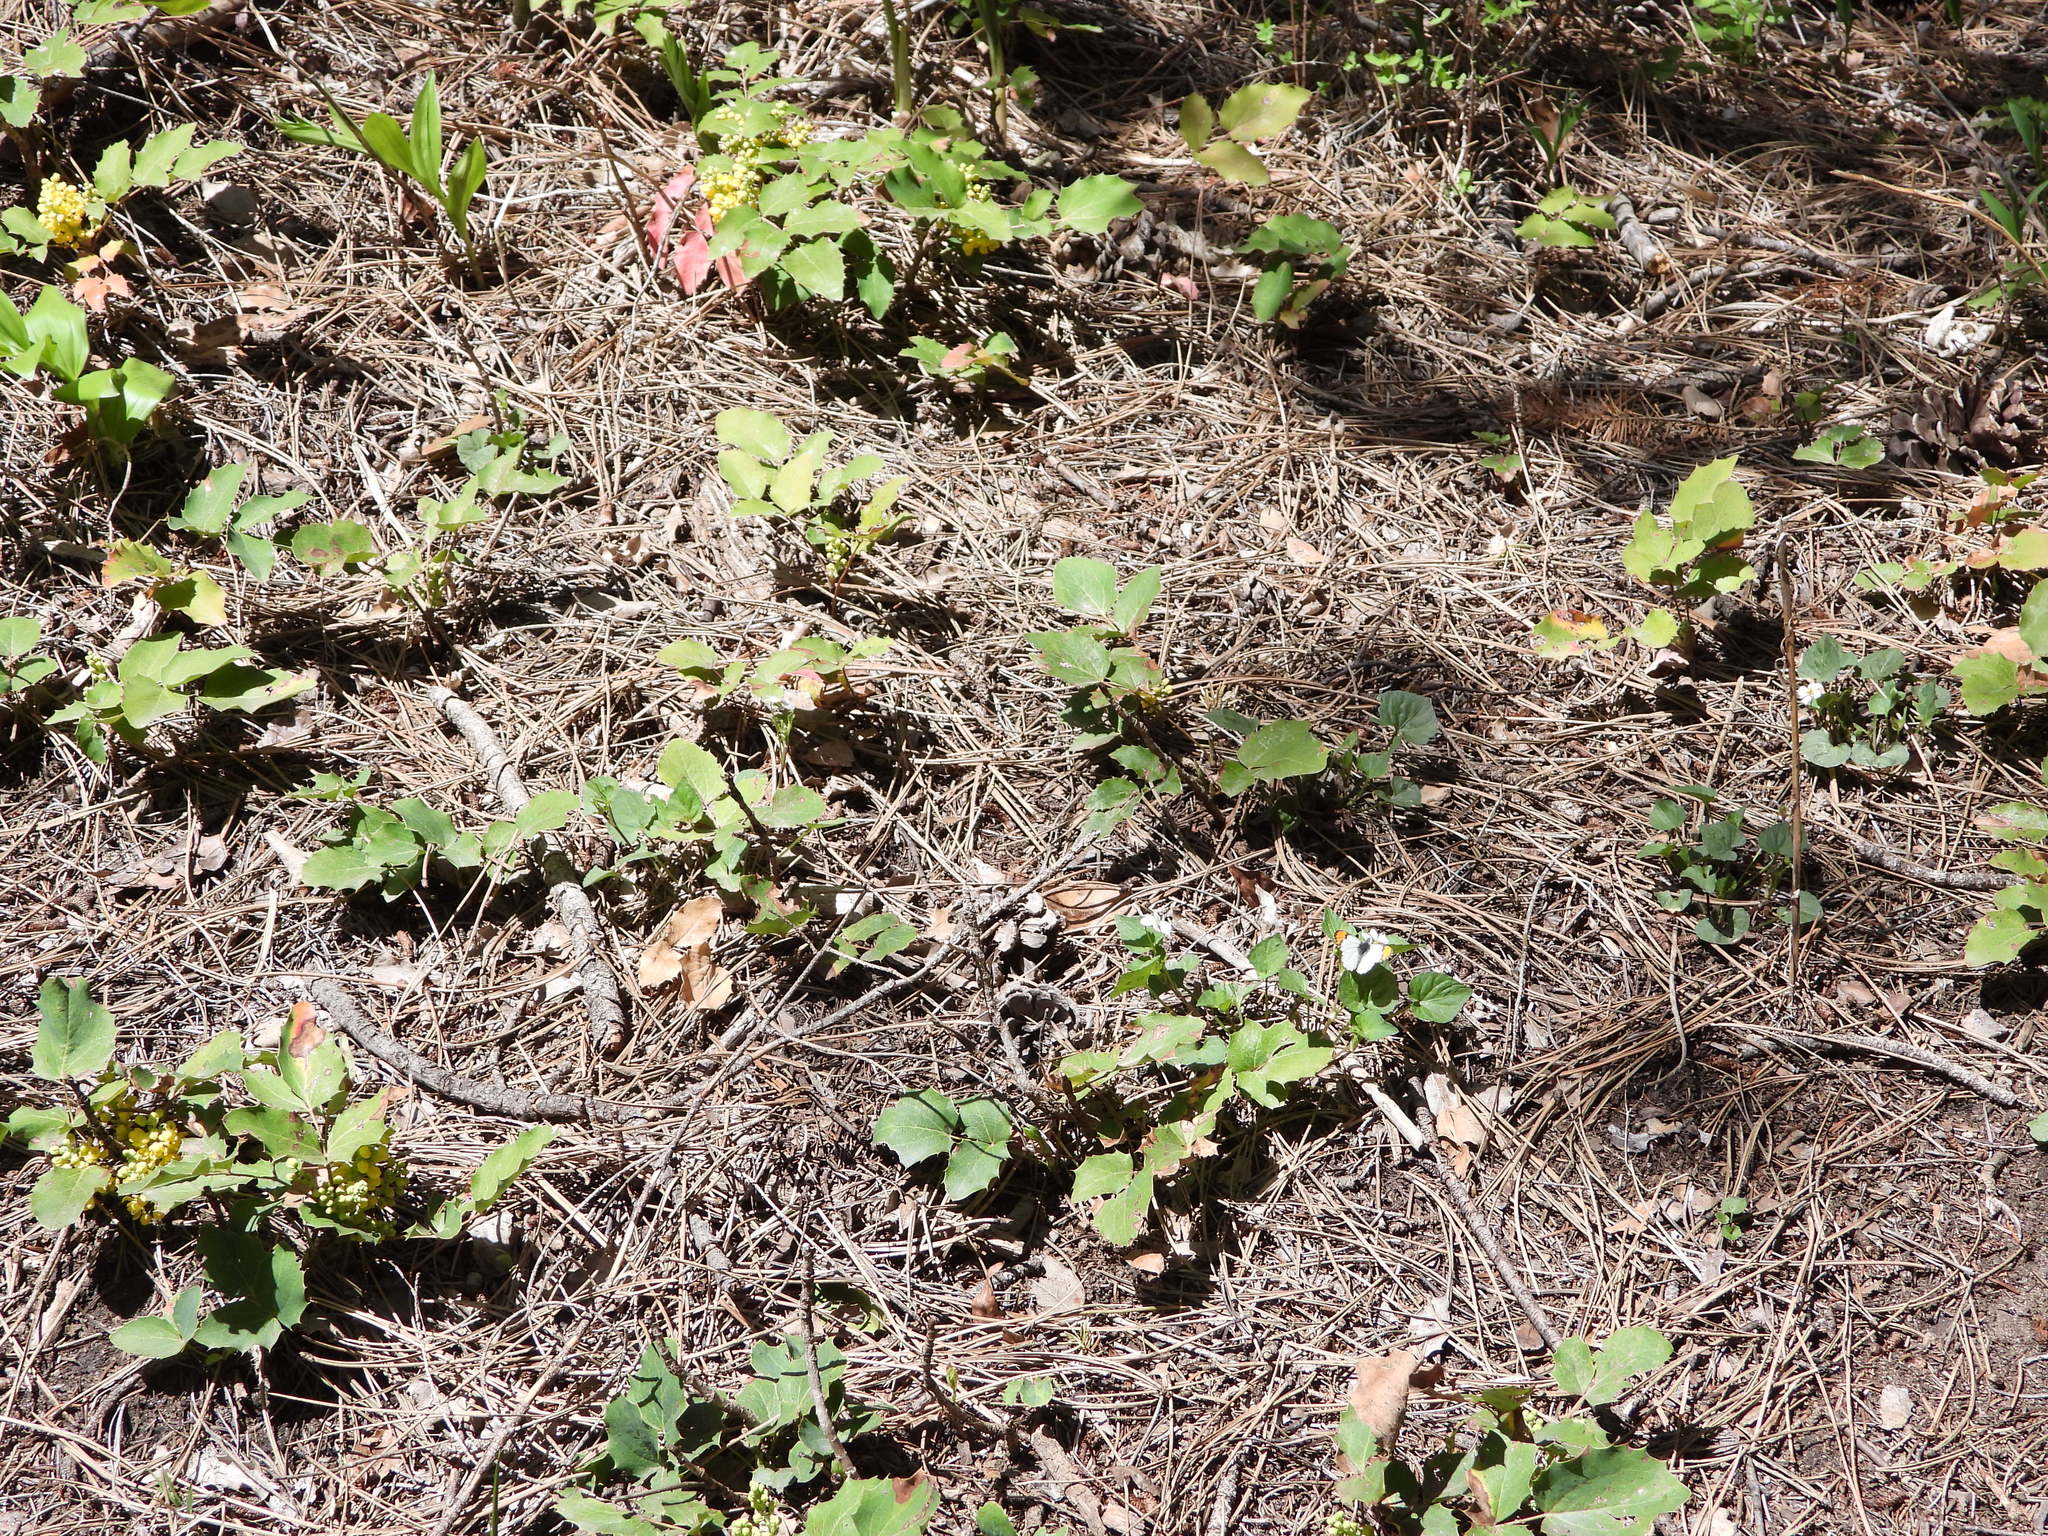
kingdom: Plantae
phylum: Tracheophyta
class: Magnoliopsida
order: Ranunculales
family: Berberidaceae
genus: Mahonia
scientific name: Mahonia repens
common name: Creeping oregon-grape
